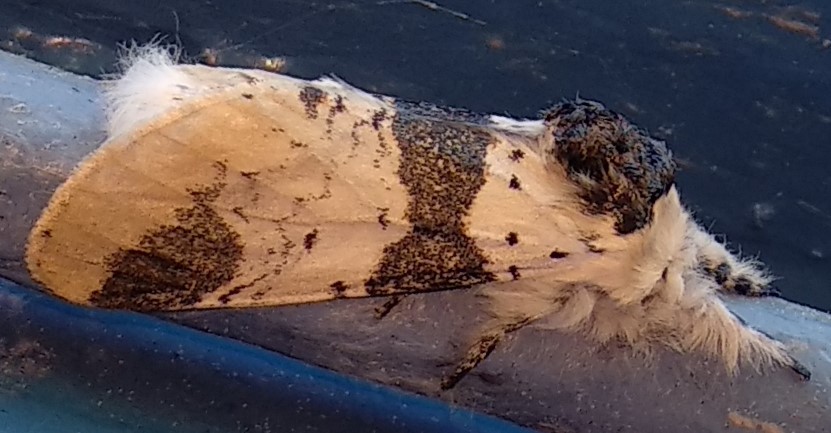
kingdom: Animalia
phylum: Arthropoda
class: Insecta
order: Lepidoptera
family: Notodontidae
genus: Furcula
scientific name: Furcula scolopendrina
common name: Zigzag furcula moth
